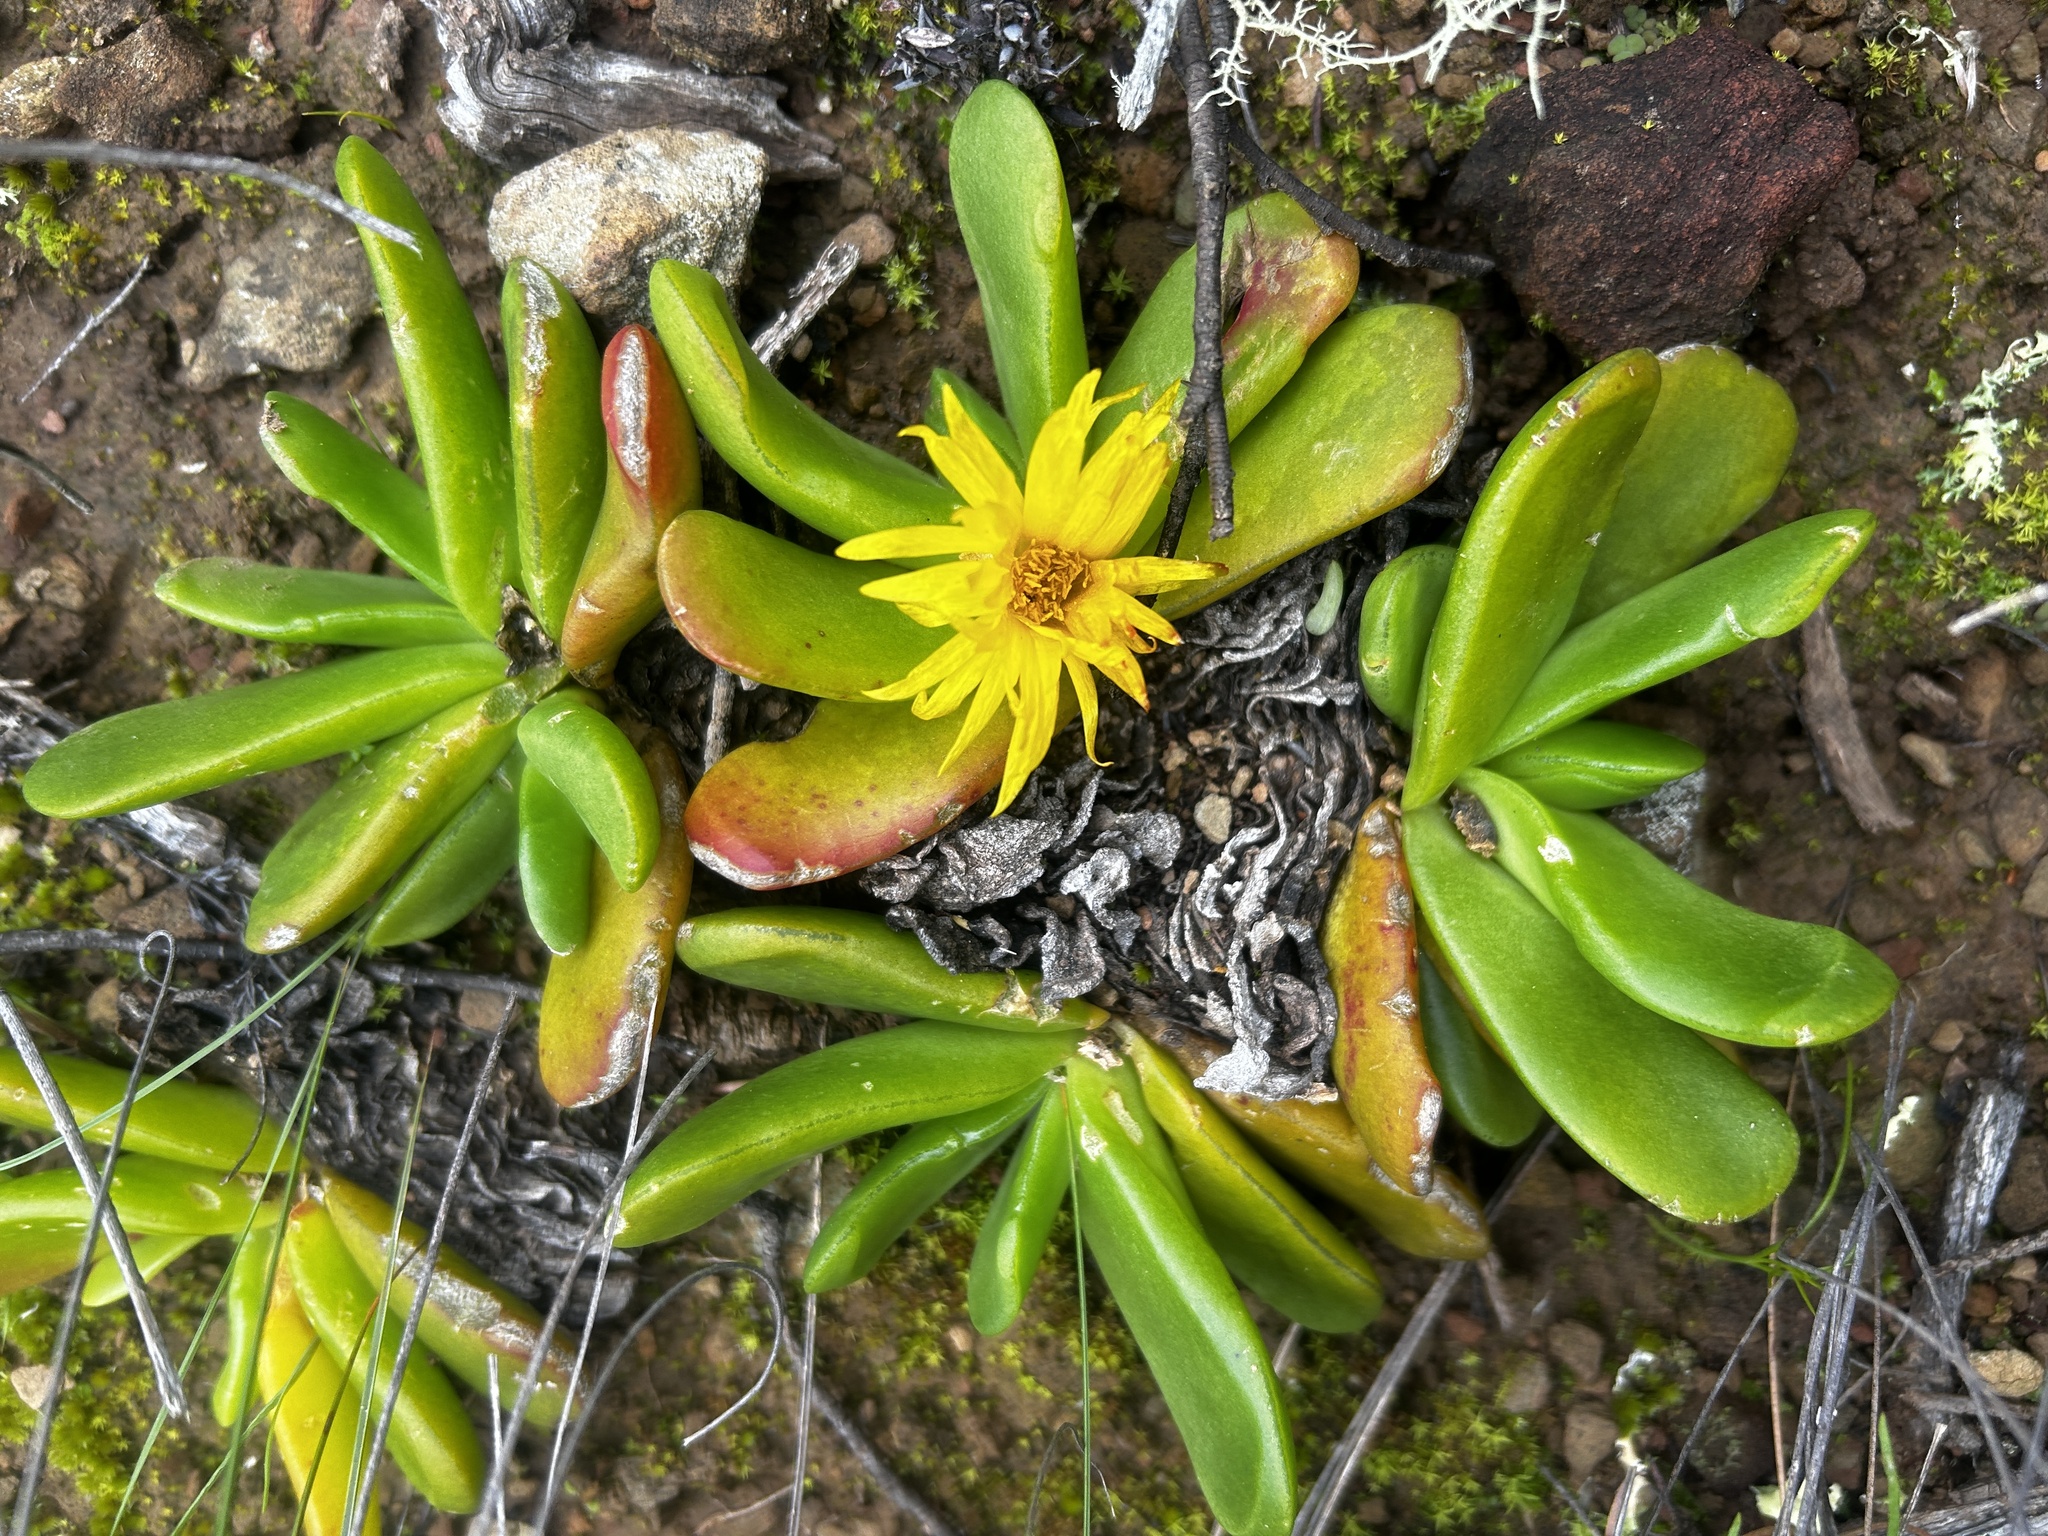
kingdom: Plantae
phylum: Tracheophyta
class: Magnoliopsida
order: Caryophyllales
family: Aizoaceae
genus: Glottiphyllum
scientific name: Glottiphyllum depressum
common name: Fig-marigold
